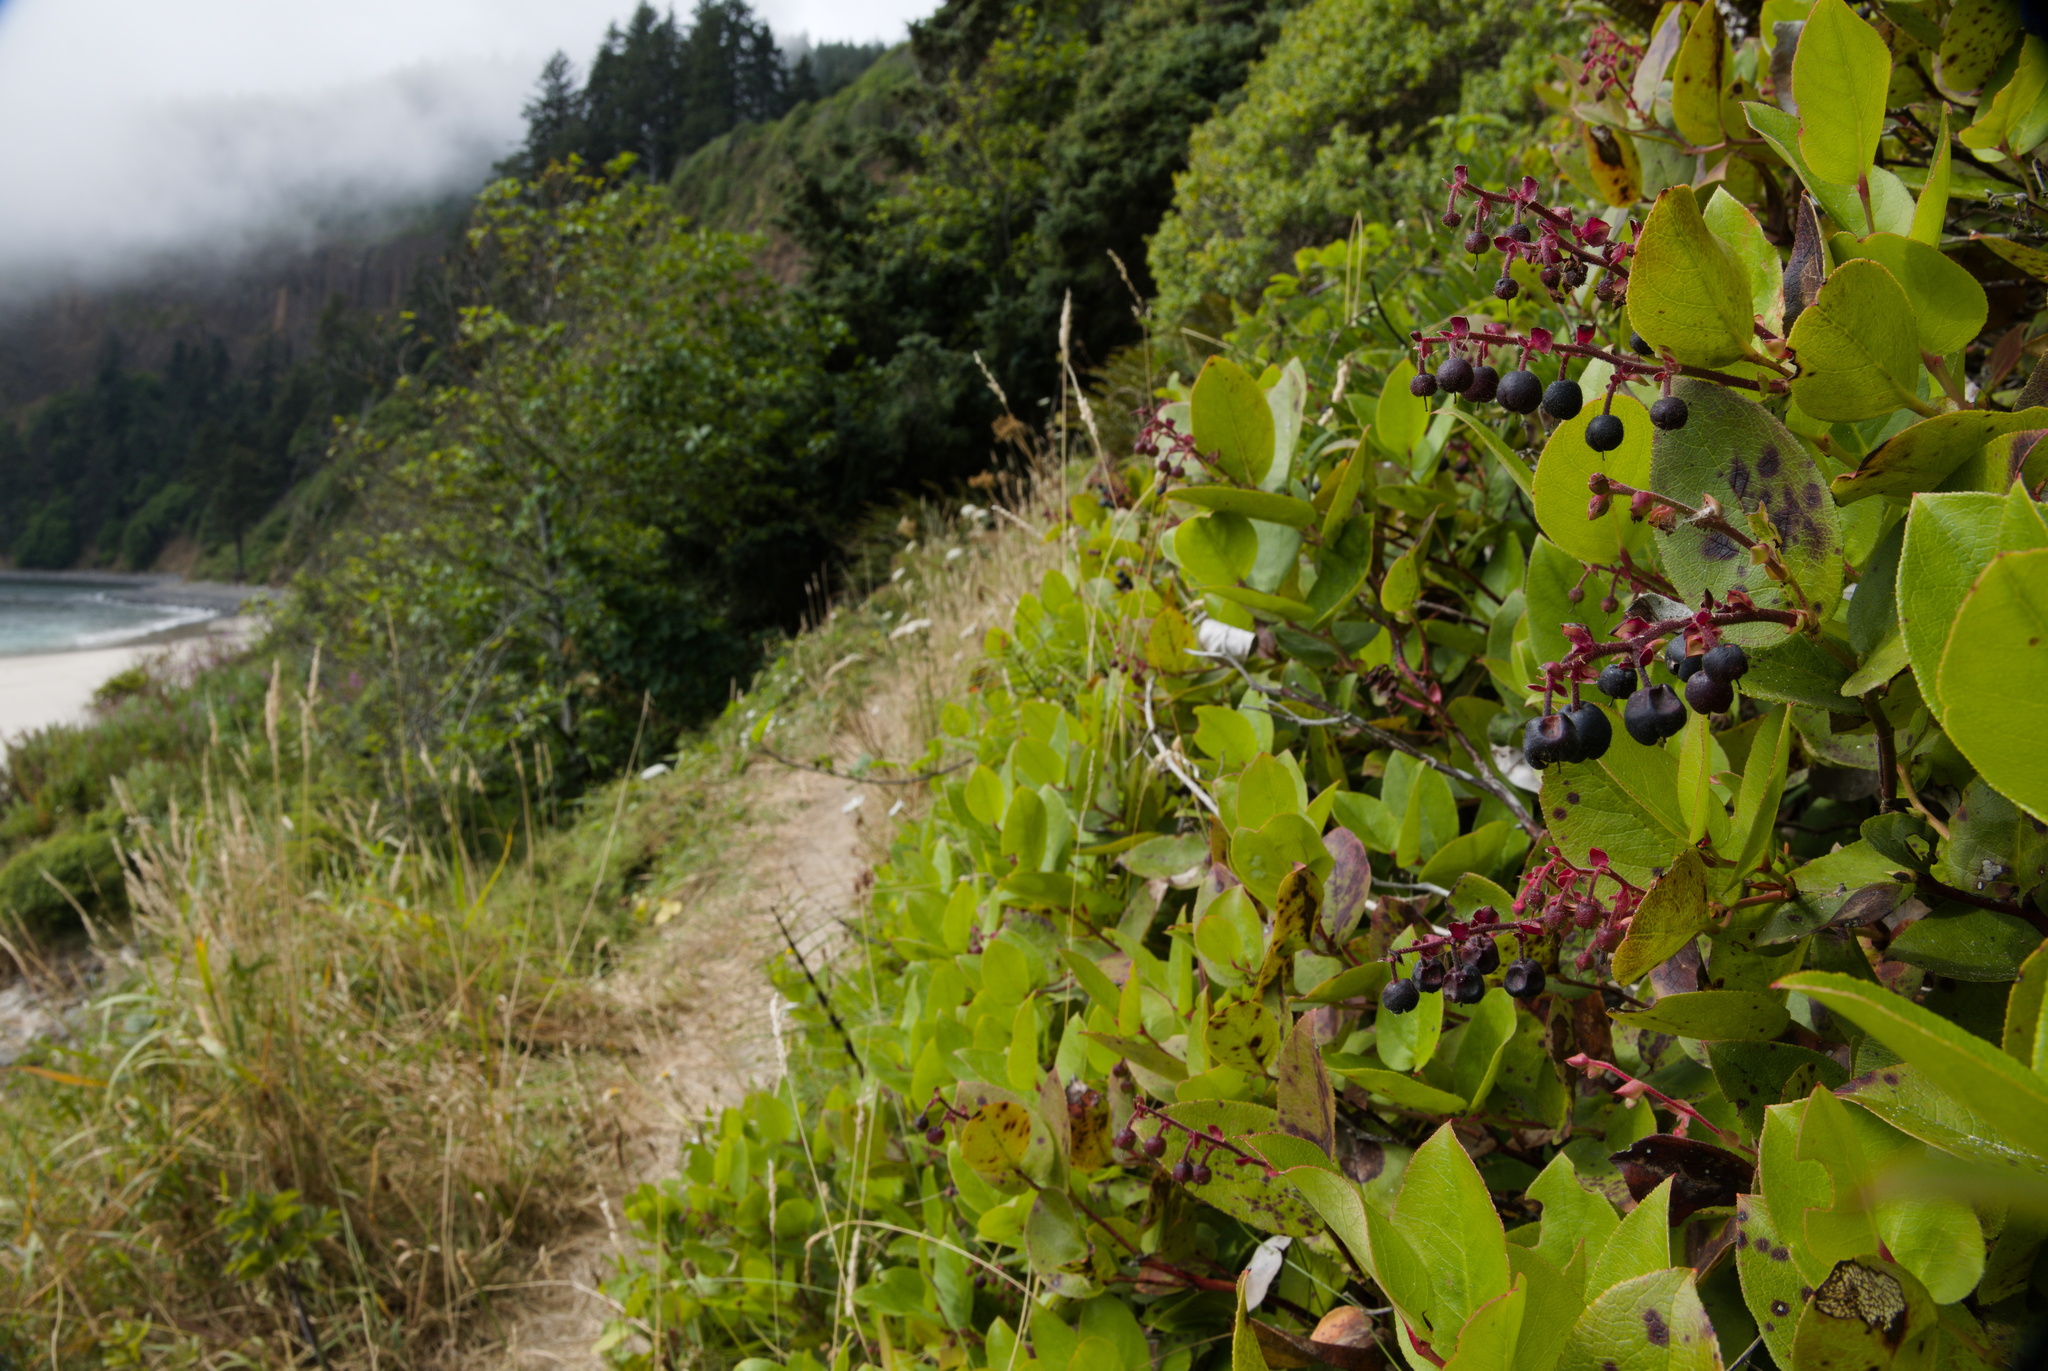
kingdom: Plantae
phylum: Tracheophyta
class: Magnoliopsida
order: Ericales
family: Ericaceae
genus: Gaultheria
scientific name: Gaultheria shallon
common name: Shallon
